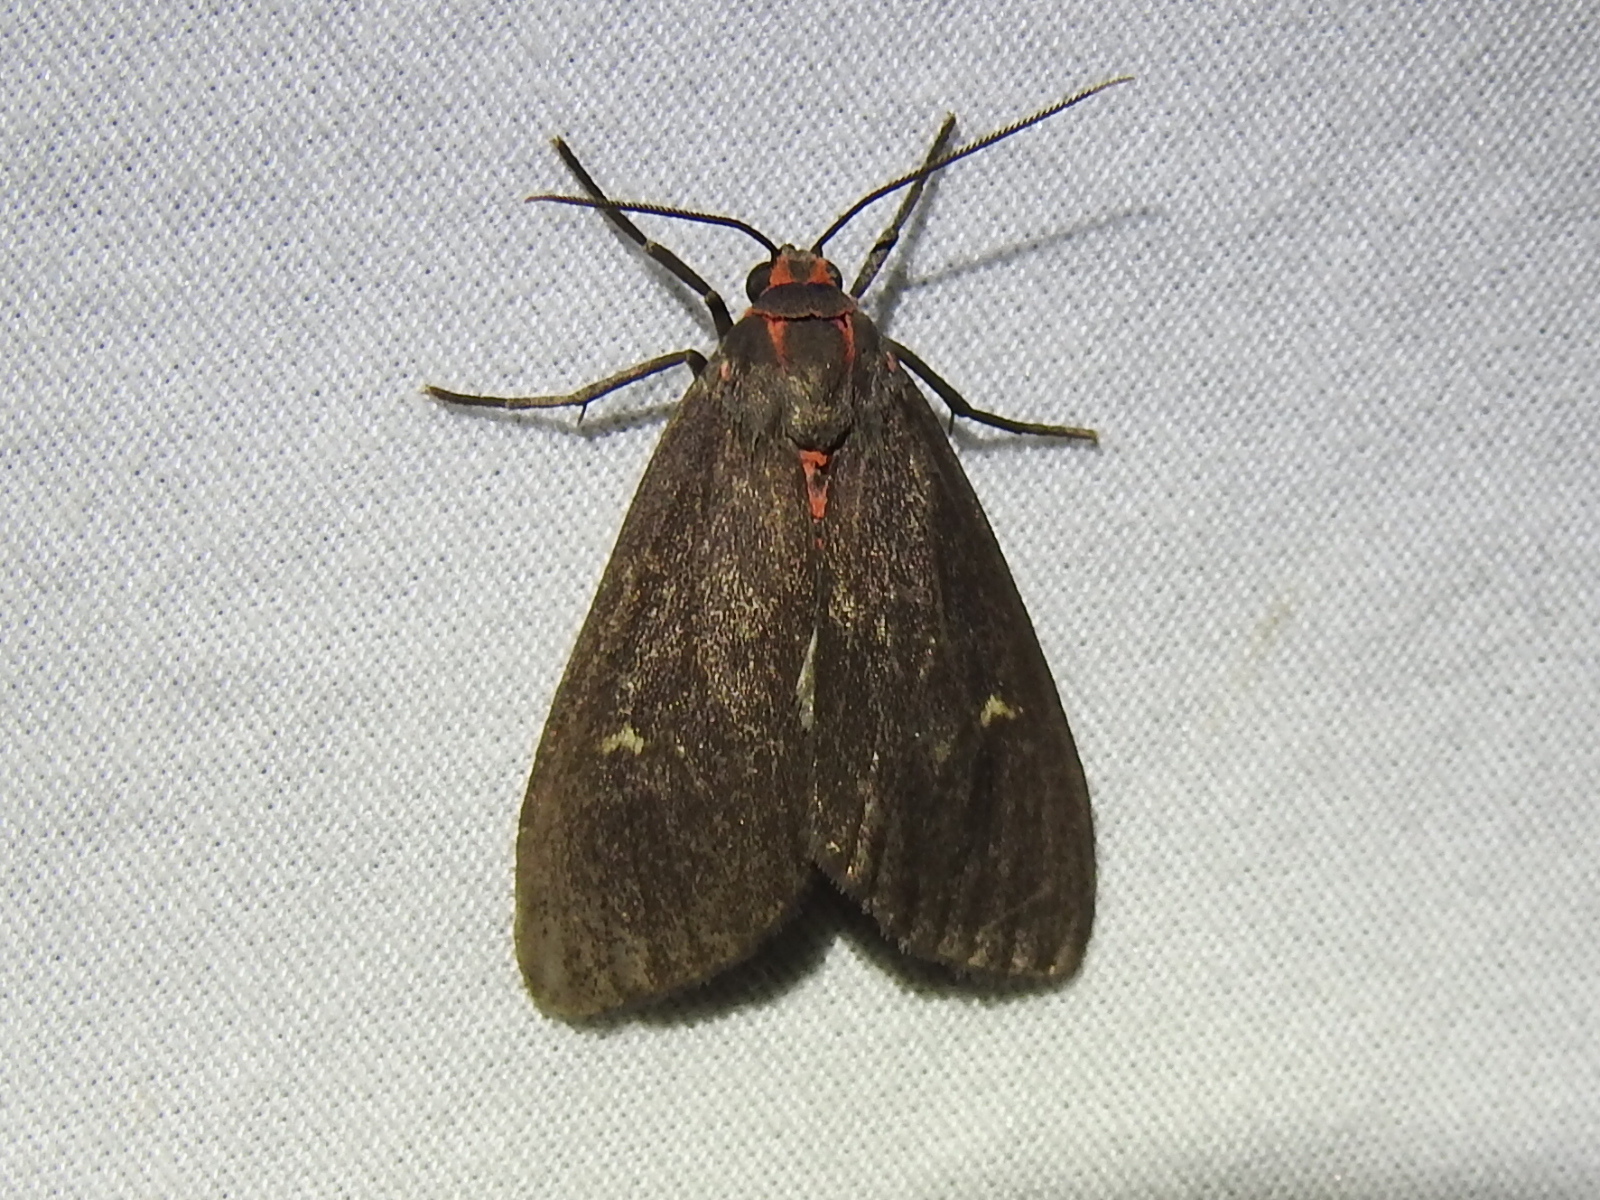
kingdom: Animalia
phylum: Arthropoda
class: Insecta
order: Lepidoptera
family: Erebidae
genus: Euchaetes
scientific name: Euchaetes zella
